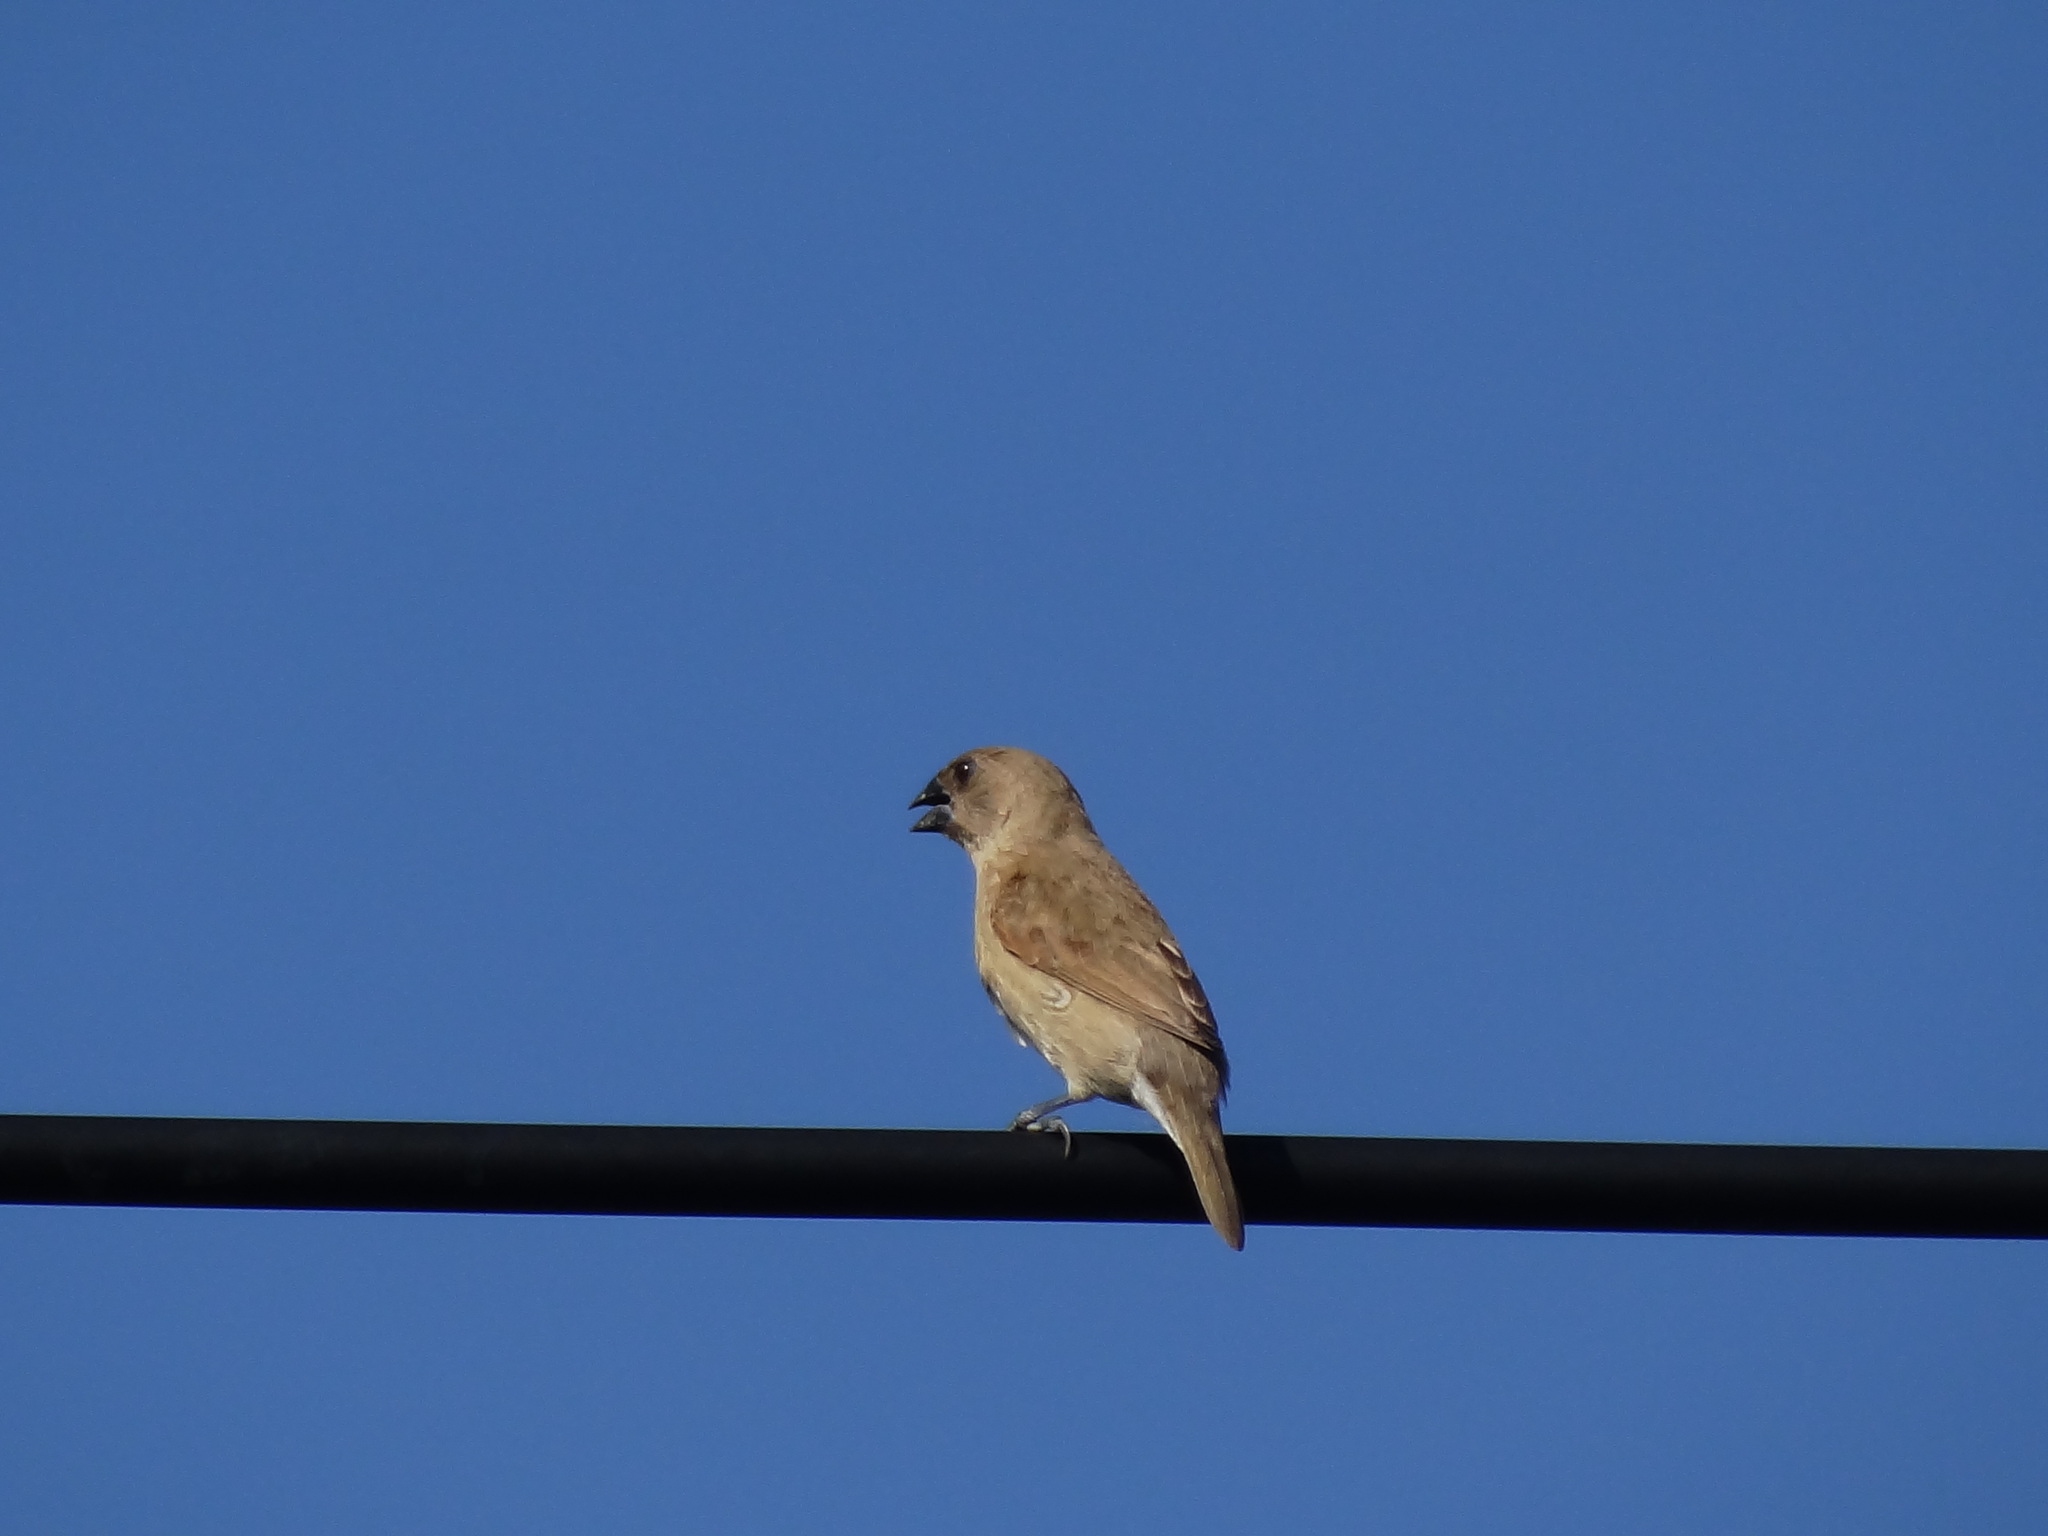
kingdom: Animalia
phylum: Chordata
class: Aves
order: Passeriformes
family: Estrildidae
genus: Lonchura
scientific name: Lonchura punctulata
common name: Scaly-breasted munia
